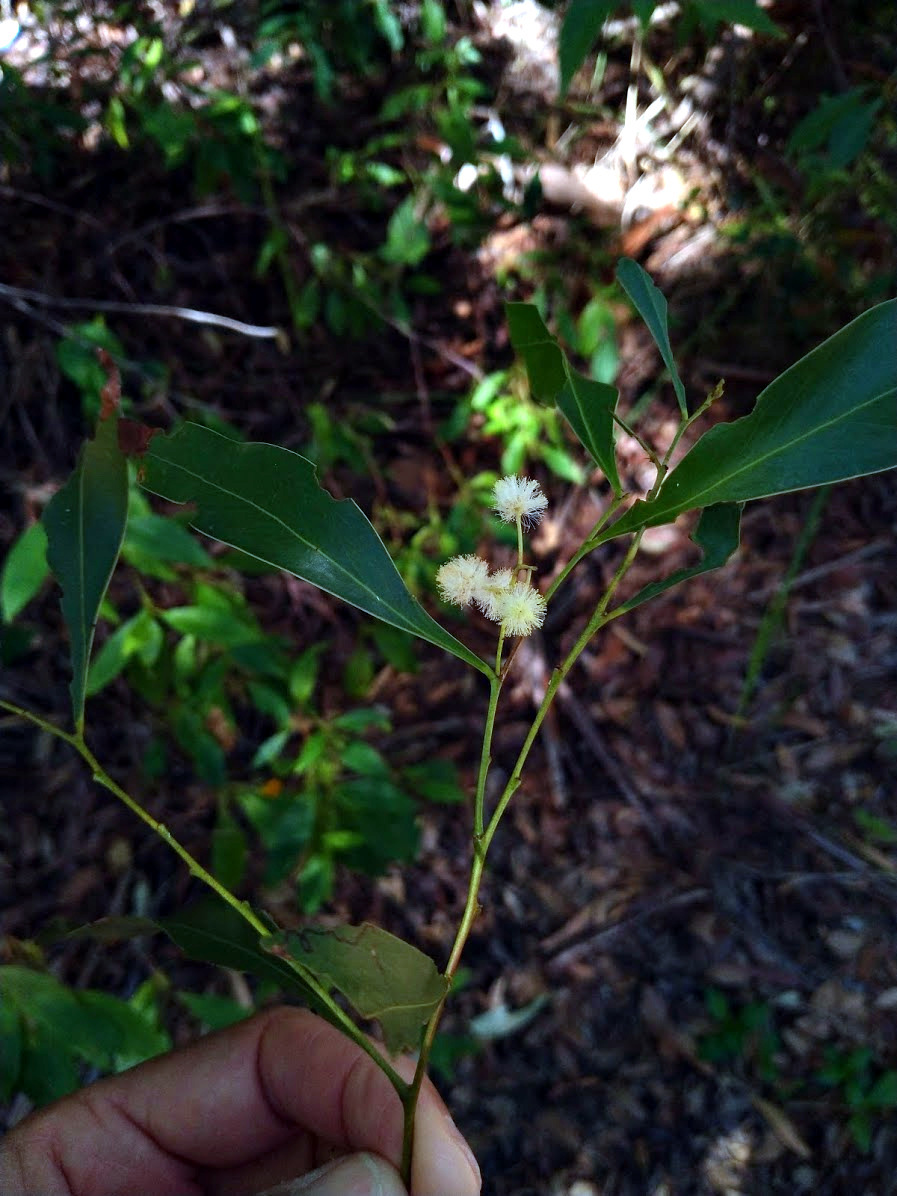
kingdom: Plantae
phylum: Tracheophyta
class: Magnoliopsida
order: Fabales
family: Fabaceae
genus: Acacia
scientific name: Acacia penninervis
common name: Hickory wattle
